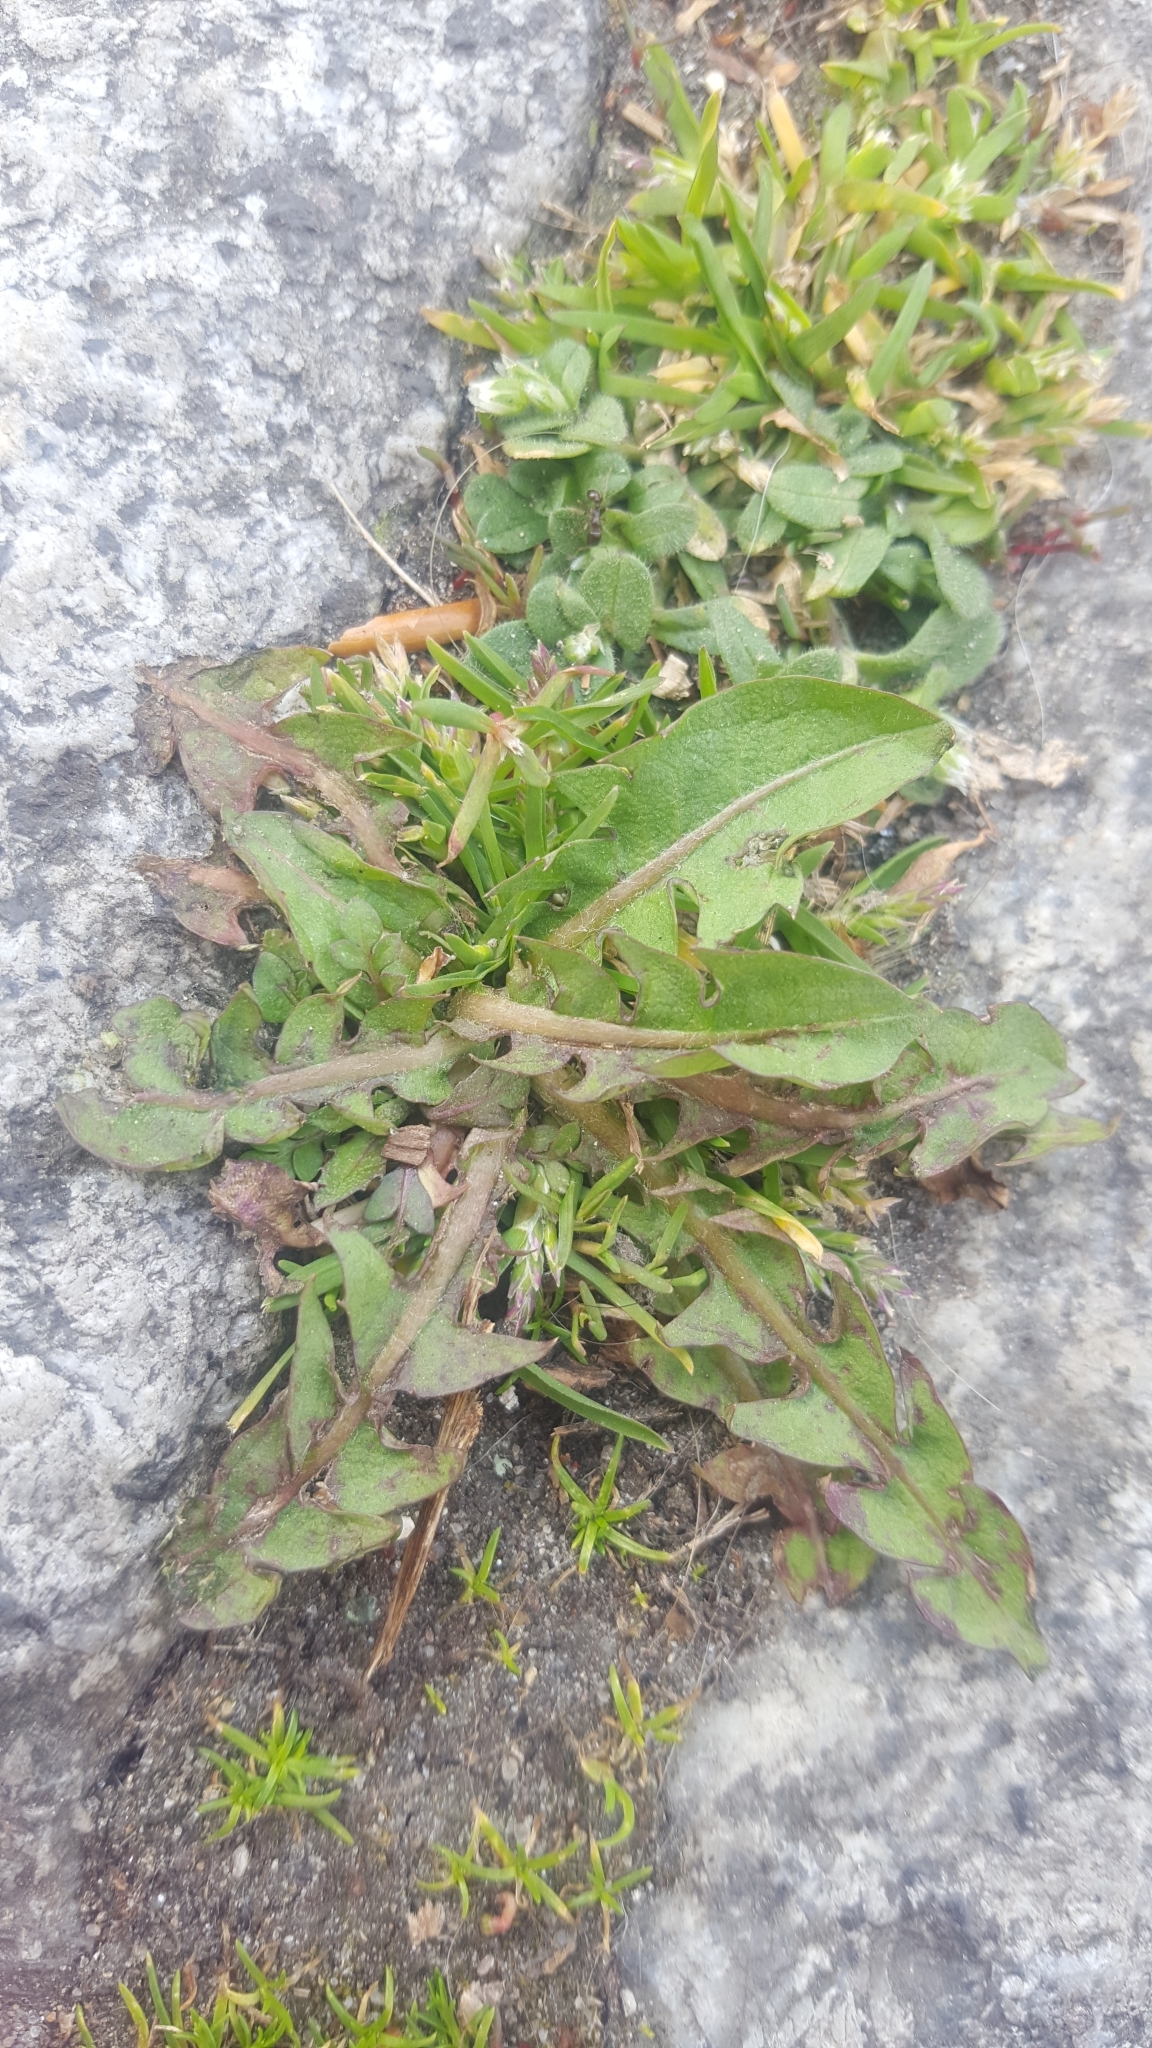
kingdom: Plantae
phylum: Tracheophyta
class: Magnoliopsida
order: Asterales
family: Asteraceae
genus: Taraxacum
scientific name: Taraxacum officinale
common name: Common dandelion
